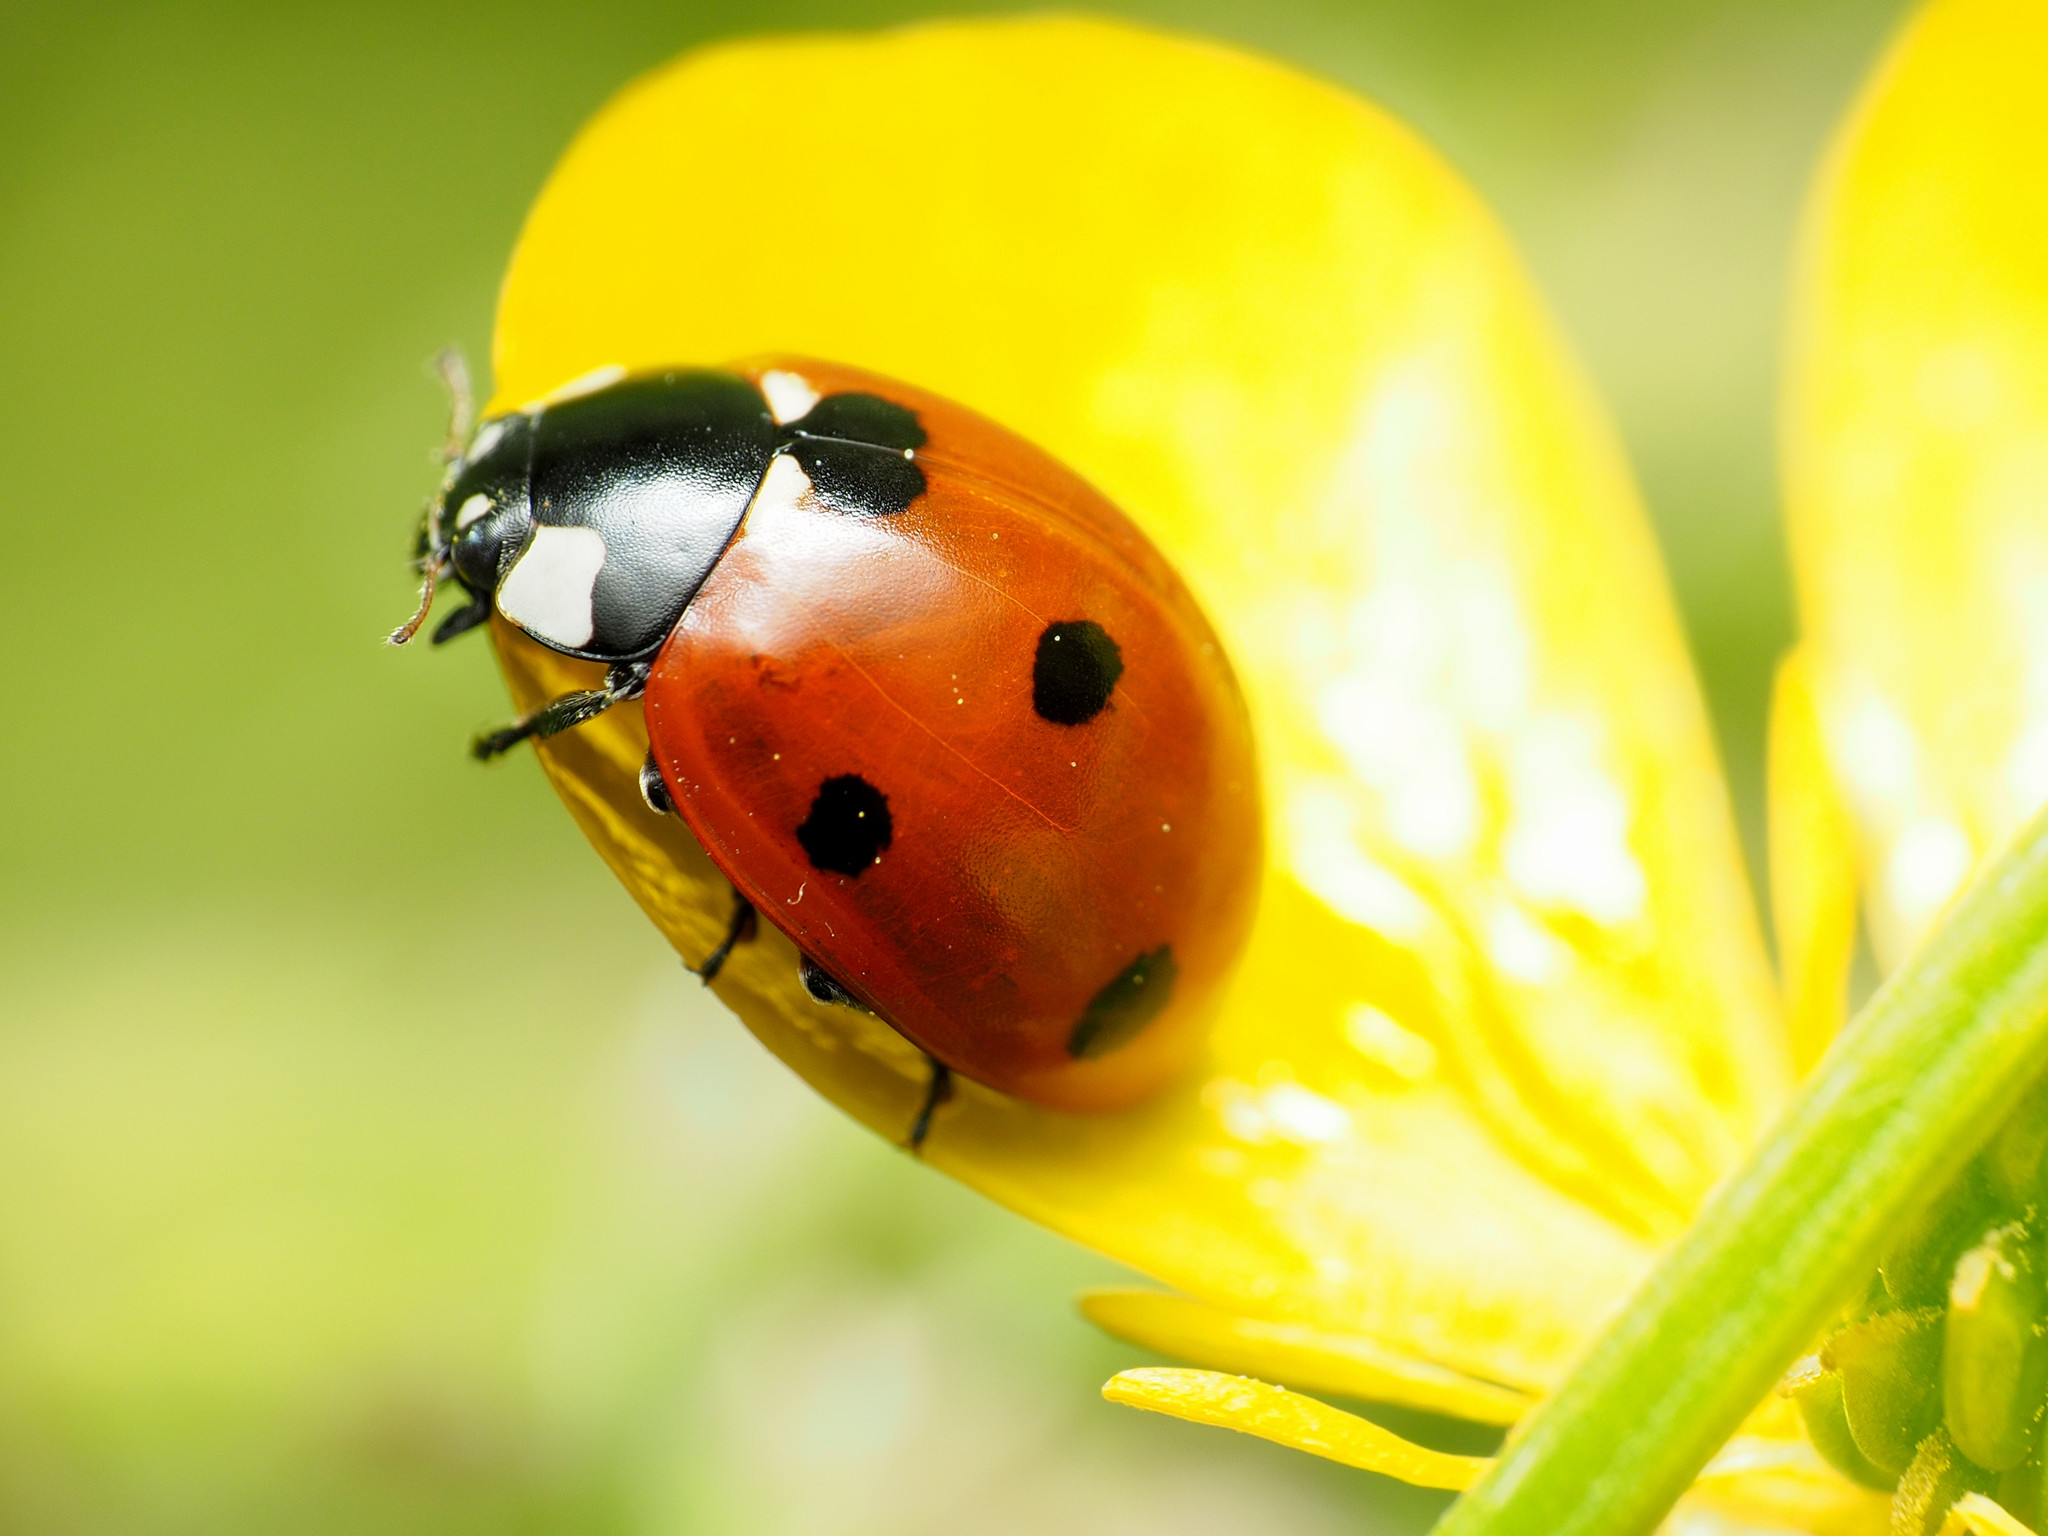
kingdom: Animalia
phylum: Arthropoda
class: Insecta
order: Coleoptera
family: Coccinellidae
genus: Coccinella
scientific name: Coccinella septempunctata
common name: Sevenspotted lady beetle
